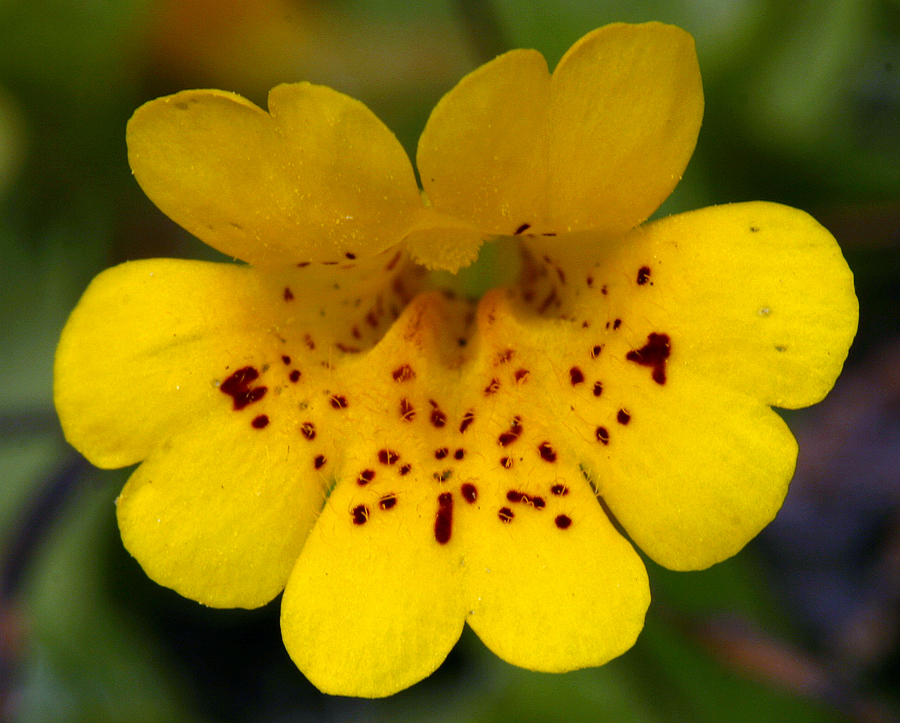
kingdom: Plantae
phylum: Tracheophyta
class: Magnoliopsida
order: Lamiales
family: Phrymaceae
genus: Erythranthe
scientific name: Erythranthe primuloides
